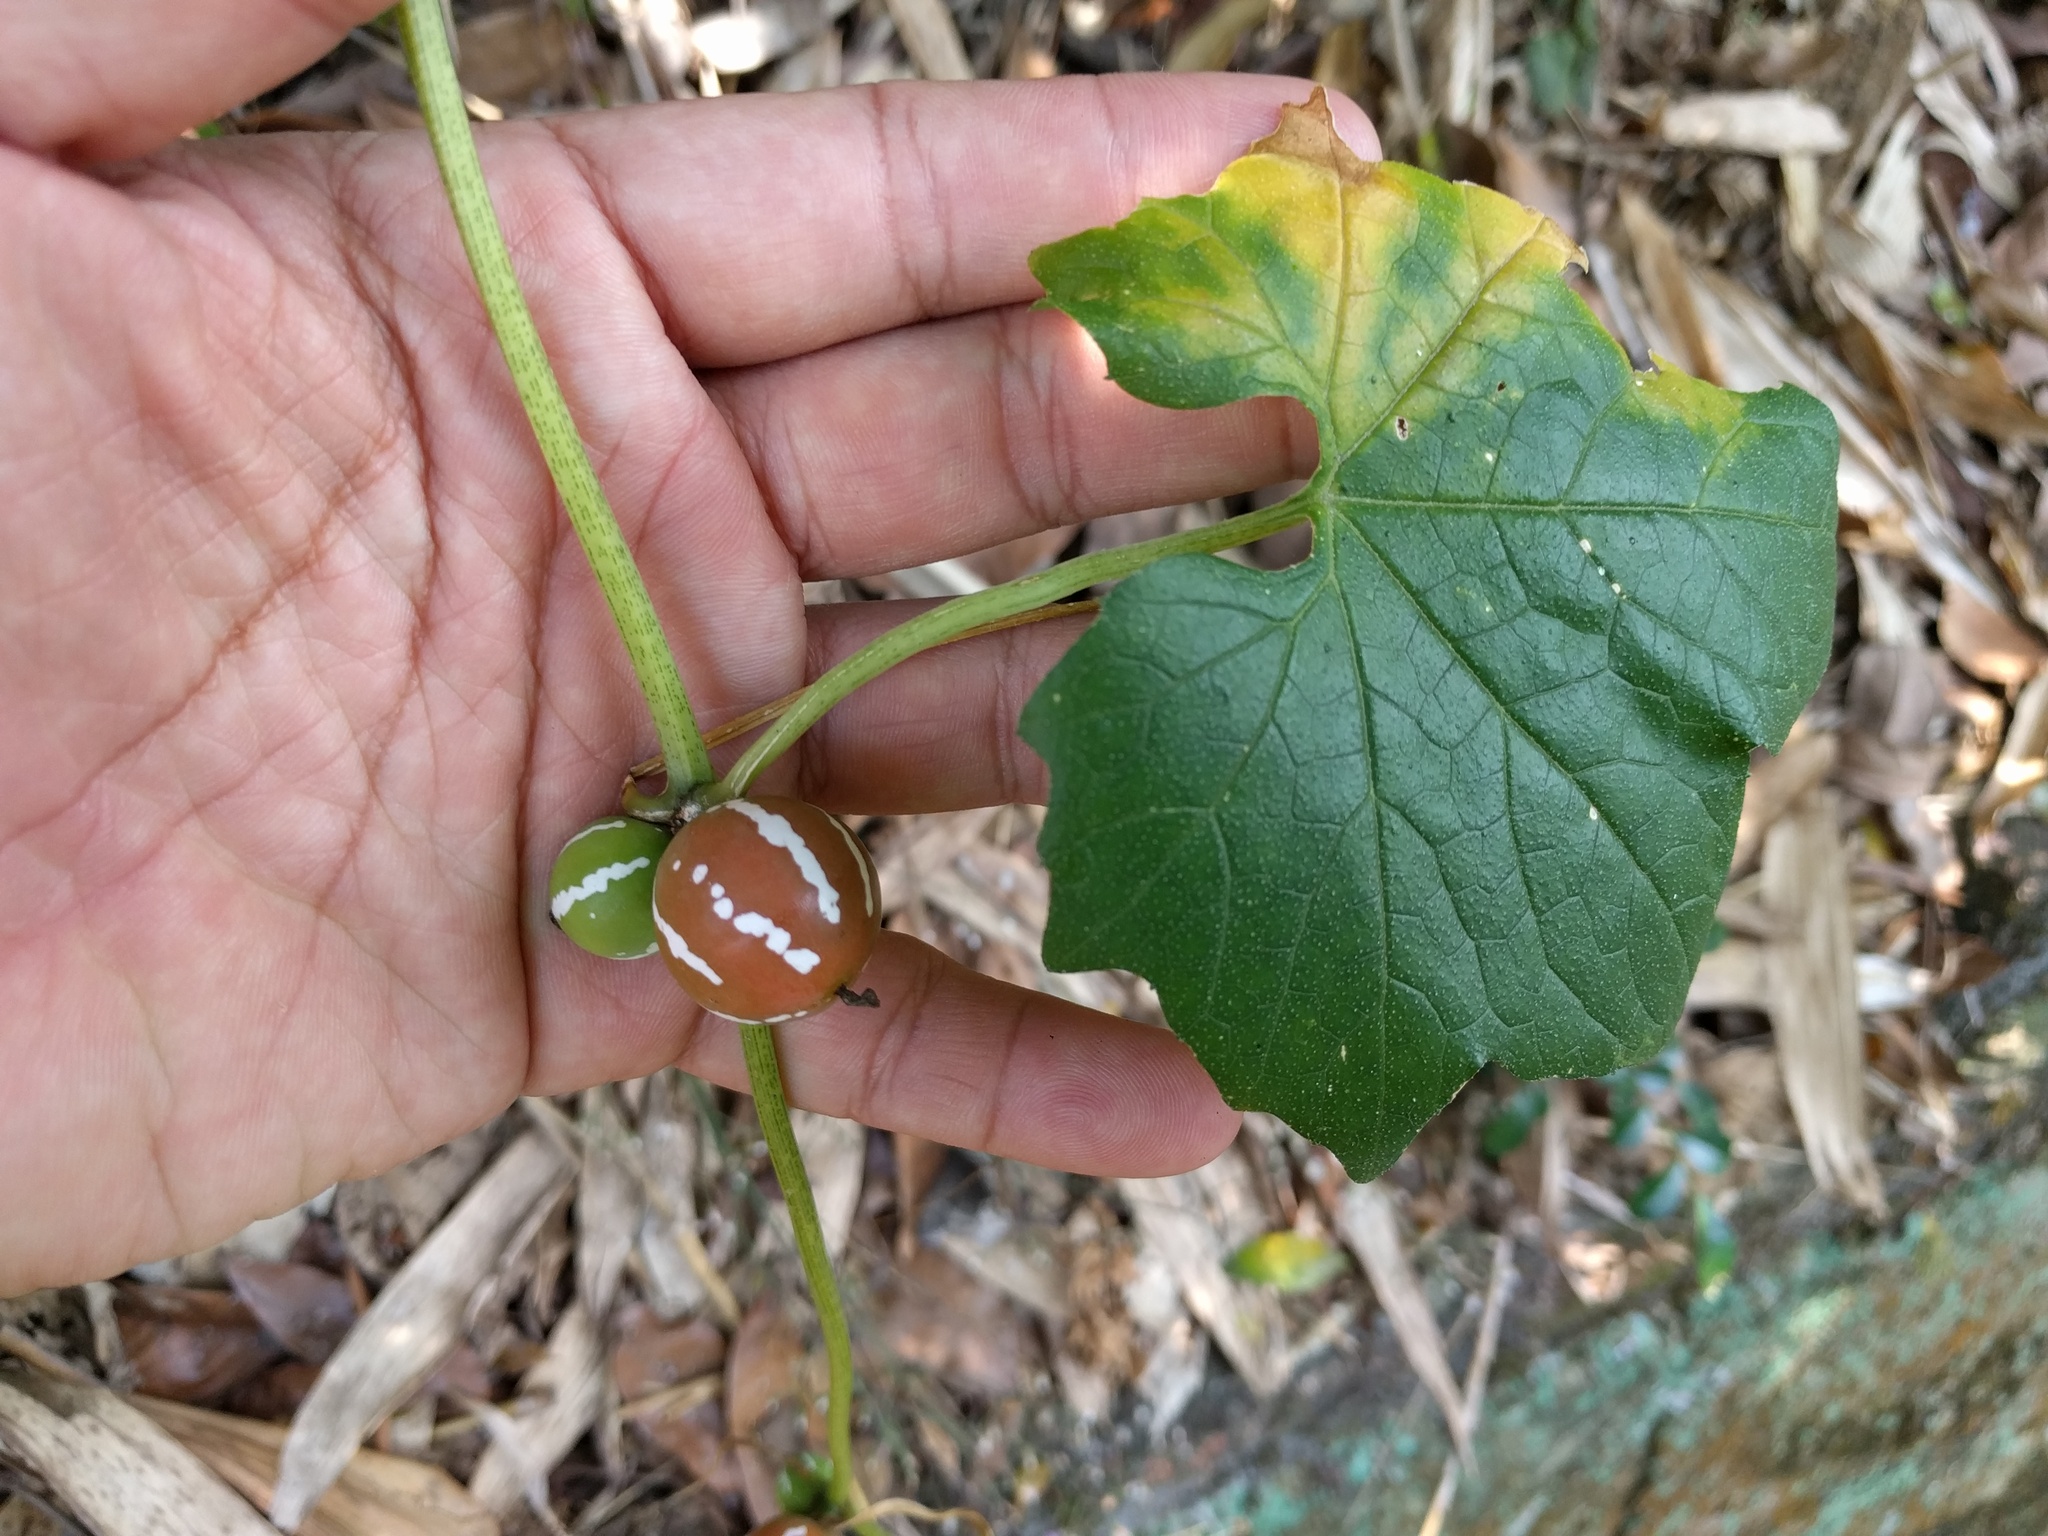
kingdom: Plantae
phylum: Tracheophyta
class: Magnoliopsida
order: Cucurbitales
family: Cucurbitaceae
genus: Diplocyclos
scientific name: Diplocyclos palmatus
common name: Striped-cucumber
